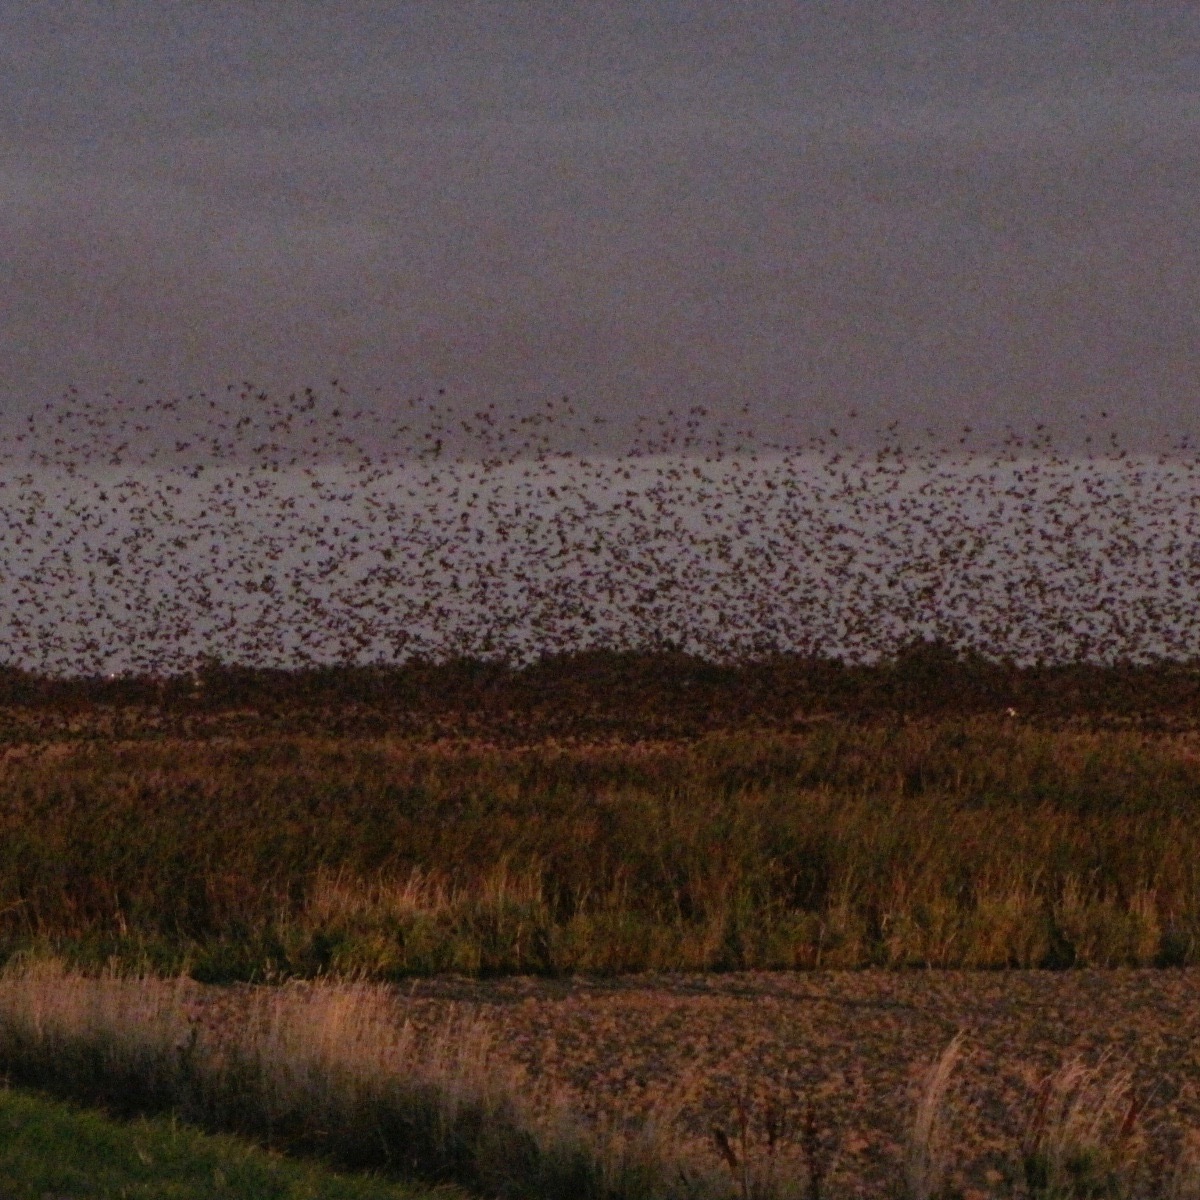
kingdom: Animalia
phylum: Chordata
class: Aves
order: Passeriformes
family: Sturnidae
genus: Sturnus
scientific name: Sturnus vulgaris
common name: Common starling
